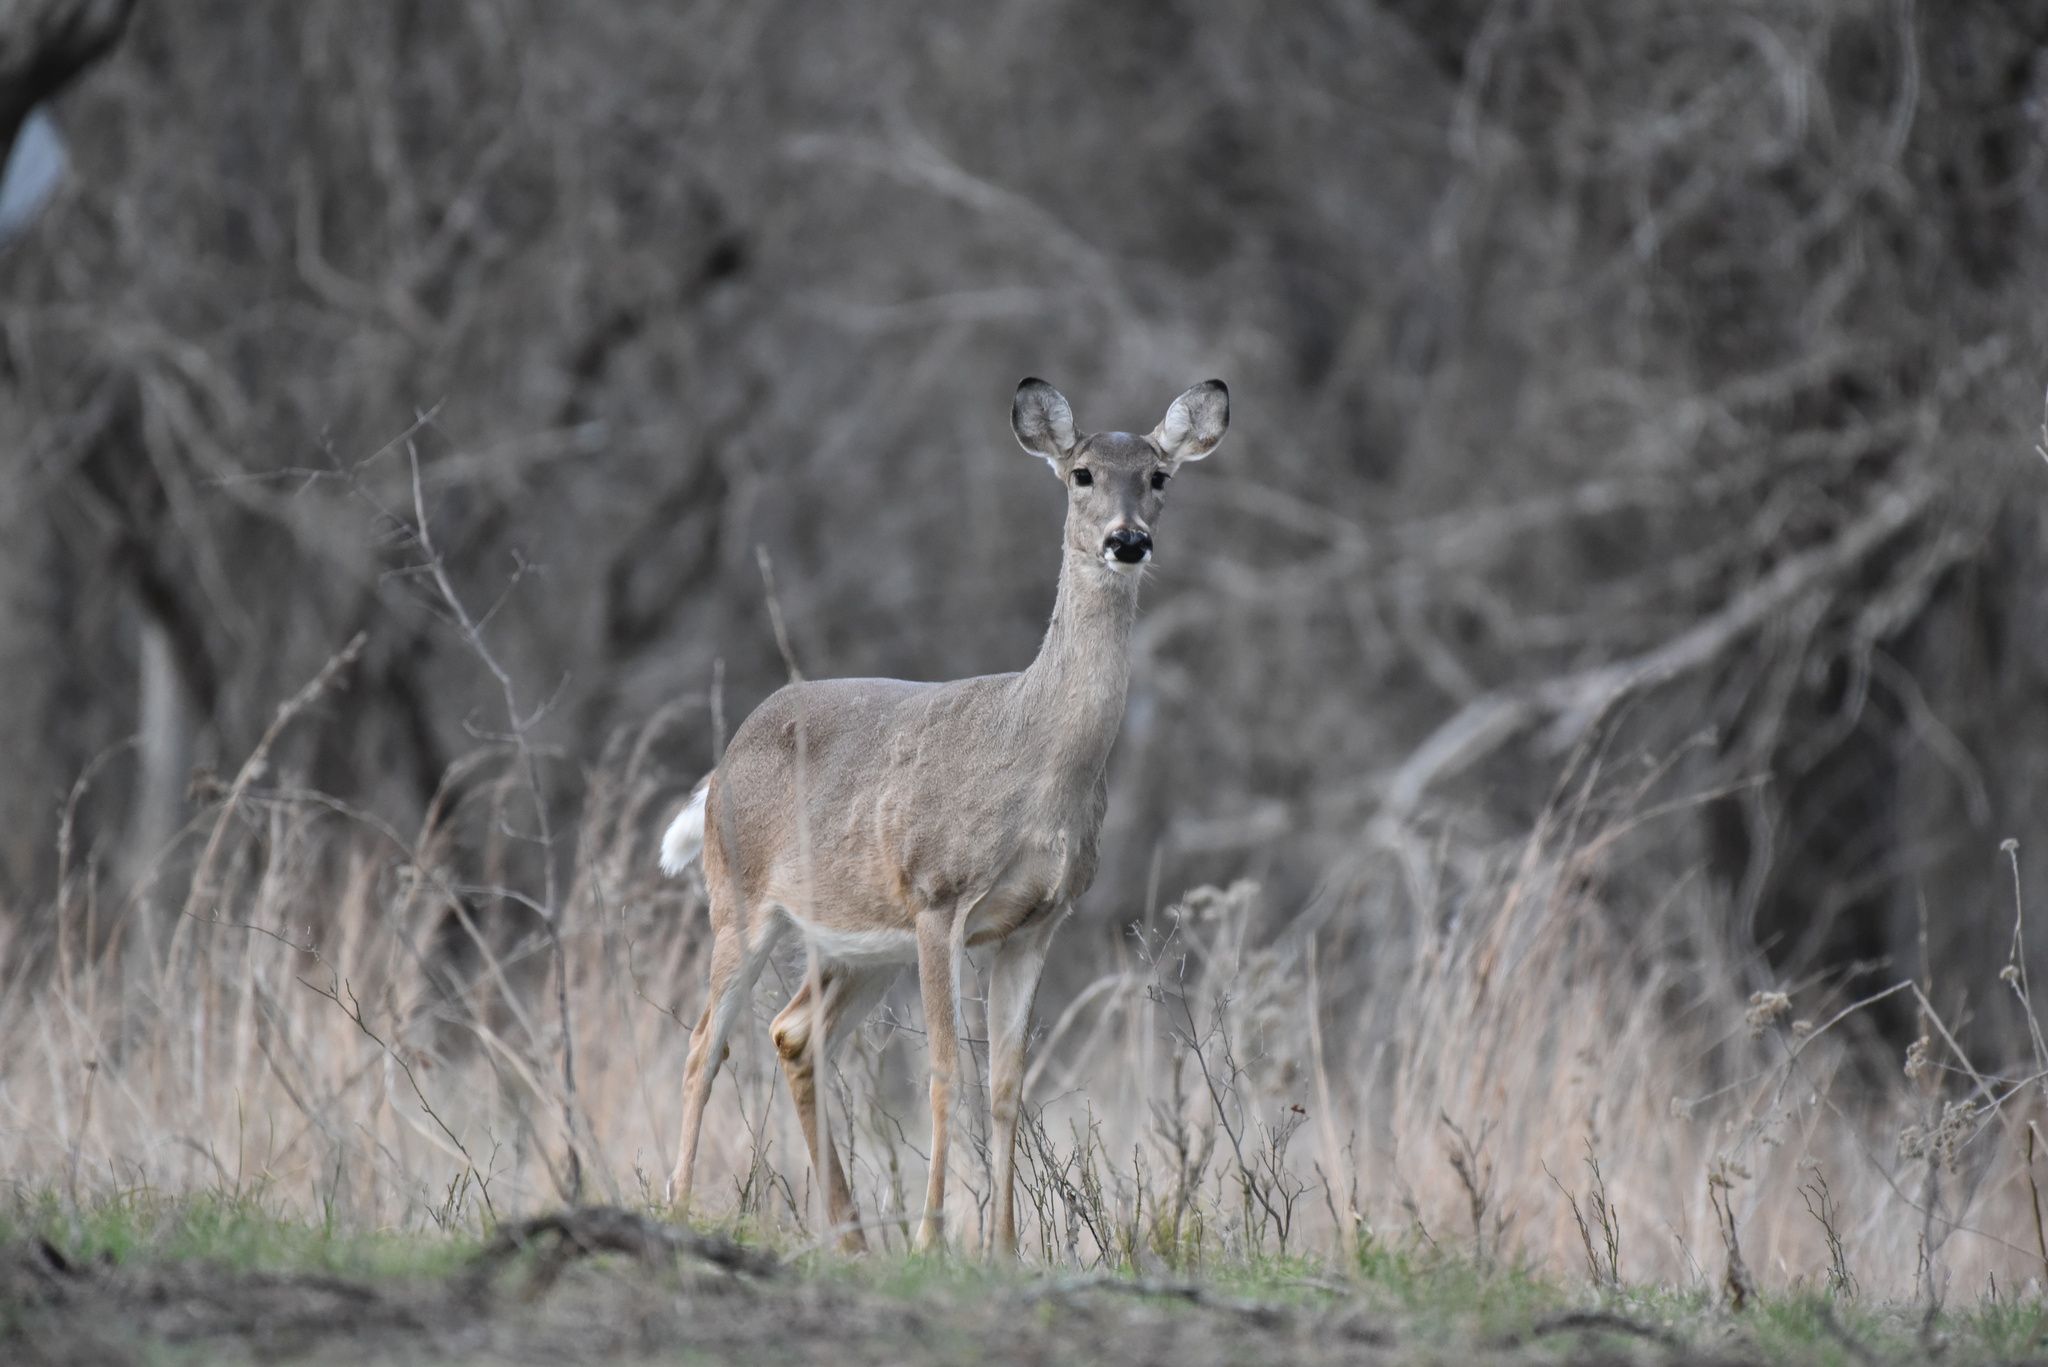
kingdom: Animalia
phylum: Chordata
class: Mammalia
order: Artiodactyla
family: Cervidae
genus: Odocoileus
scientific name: Odocoileus virginianus
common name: White-tailed deer
